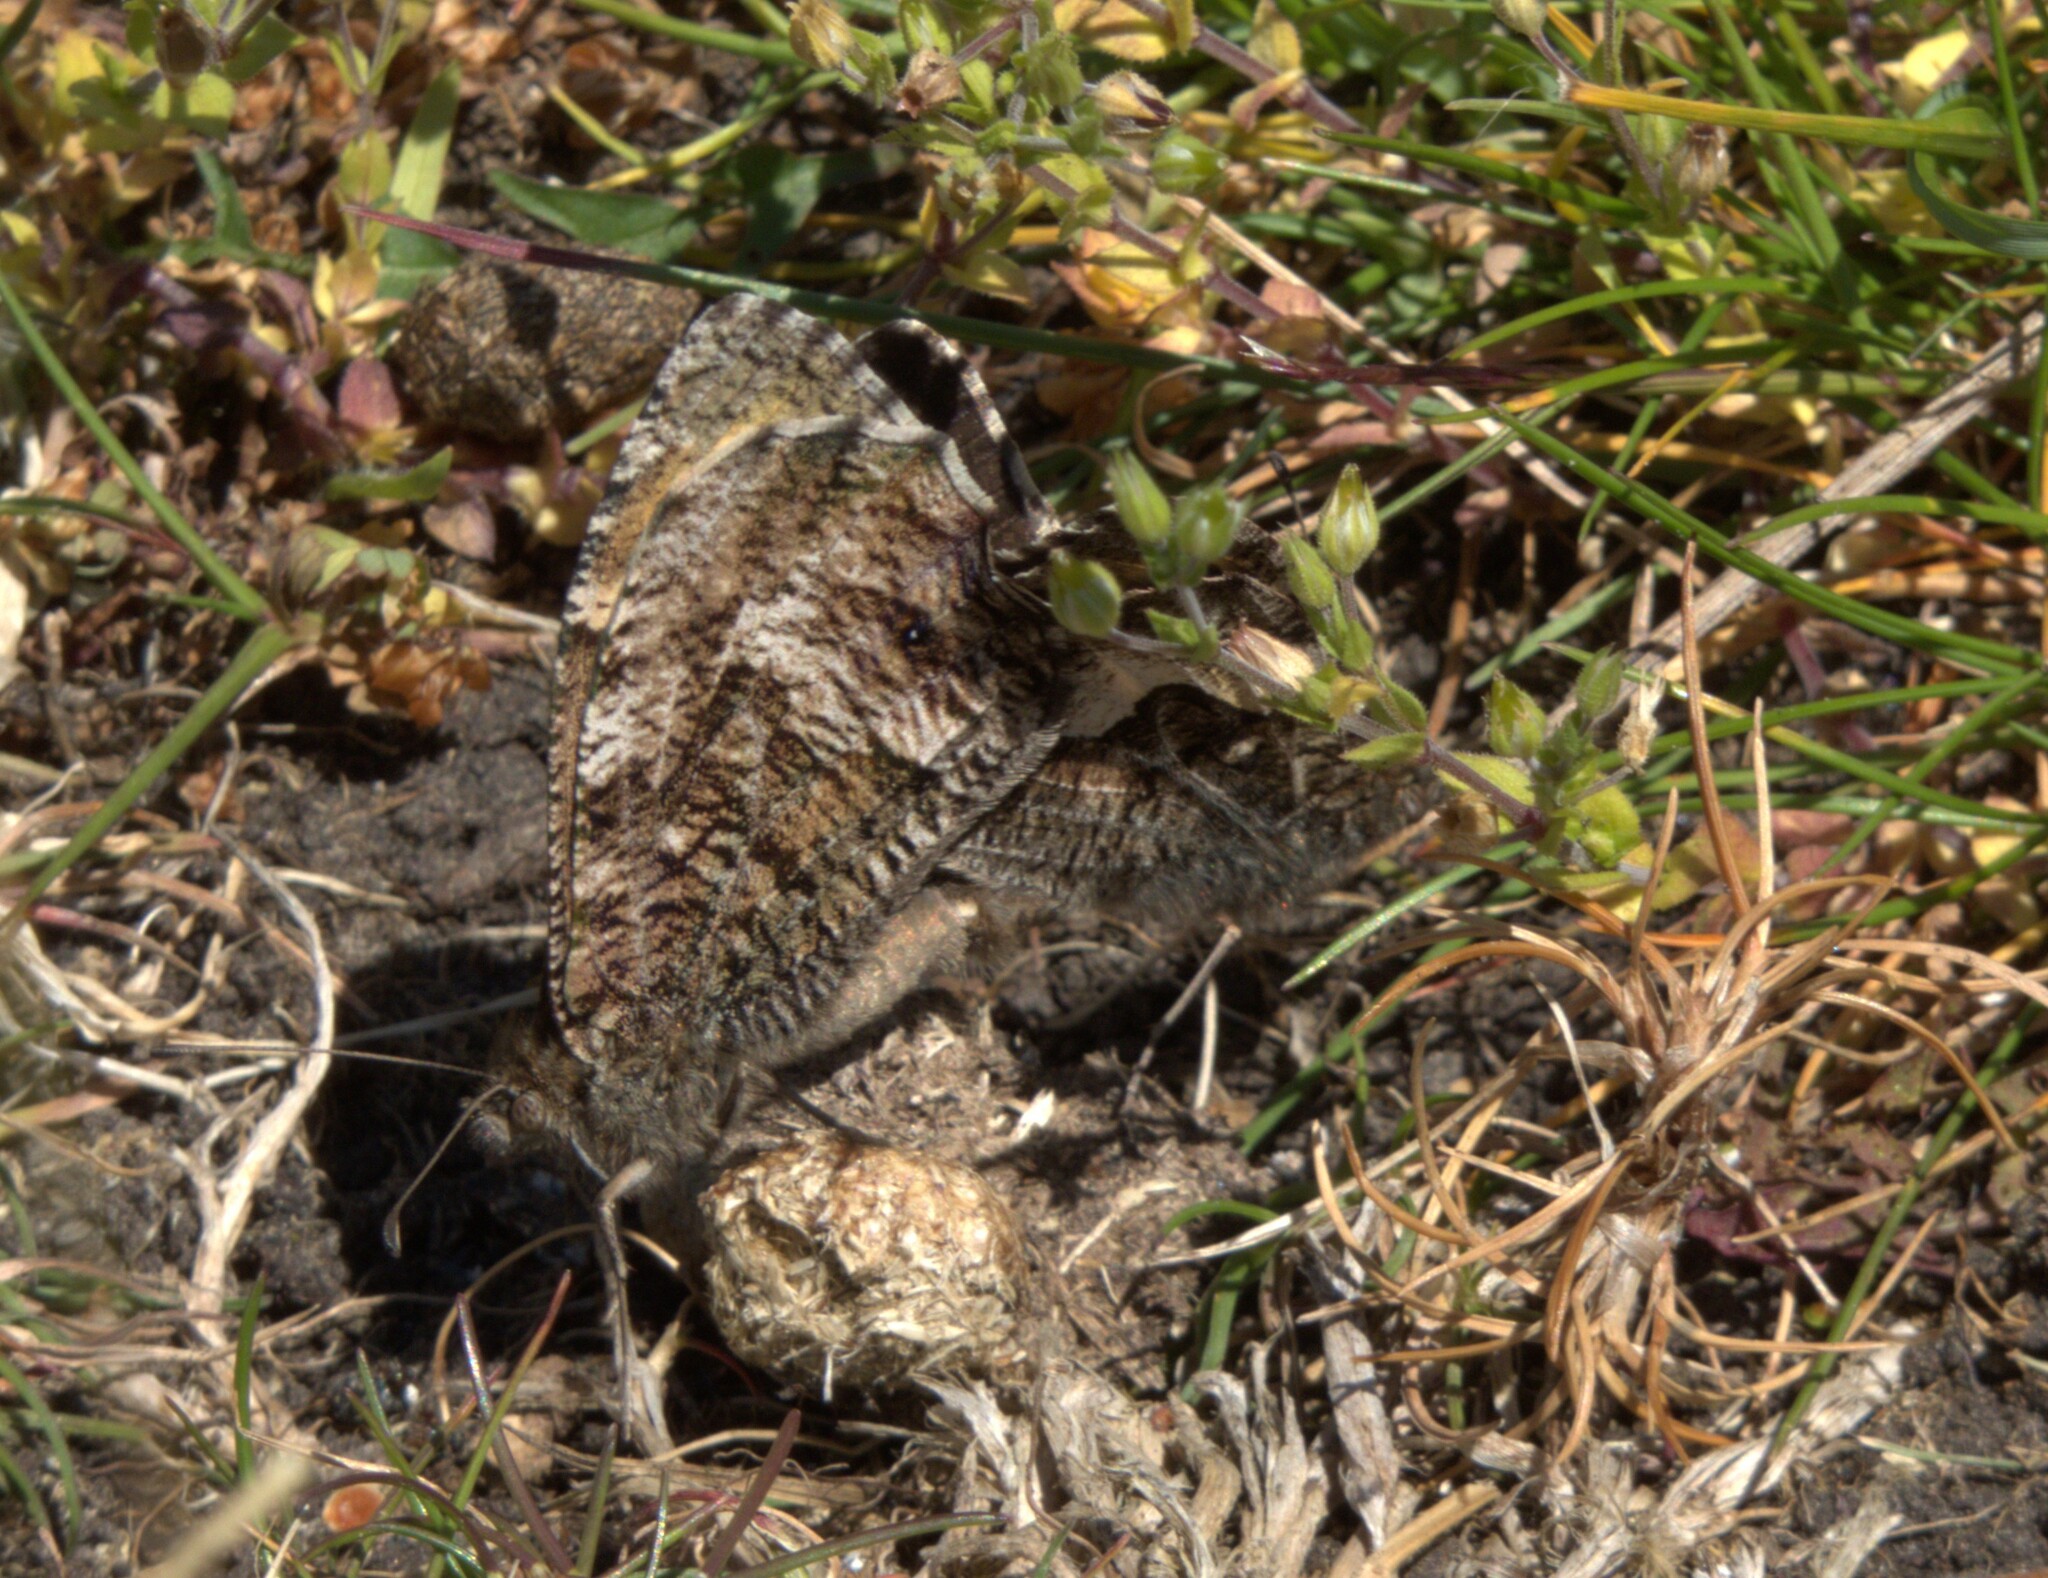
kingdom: Animalia
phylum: Arthropoda
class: Insecta
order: Lepidoptera
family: Nymphalidae
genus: Hipparchia
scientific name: Hipparchia semele
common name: Grayling
